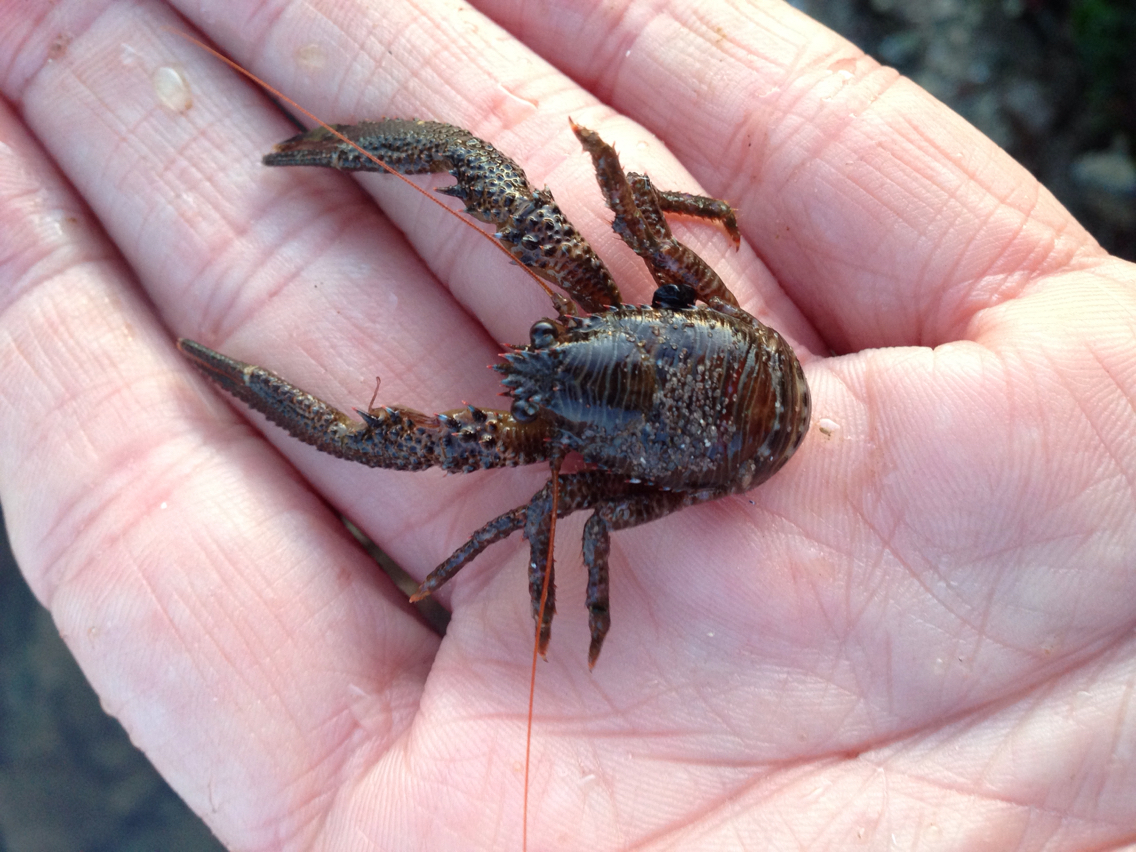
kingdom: Animalia
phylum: Arthropoda
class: Malacostraca
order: Decapoda
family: Galatheidae
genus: Galathea
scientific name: Galathea squamifera
